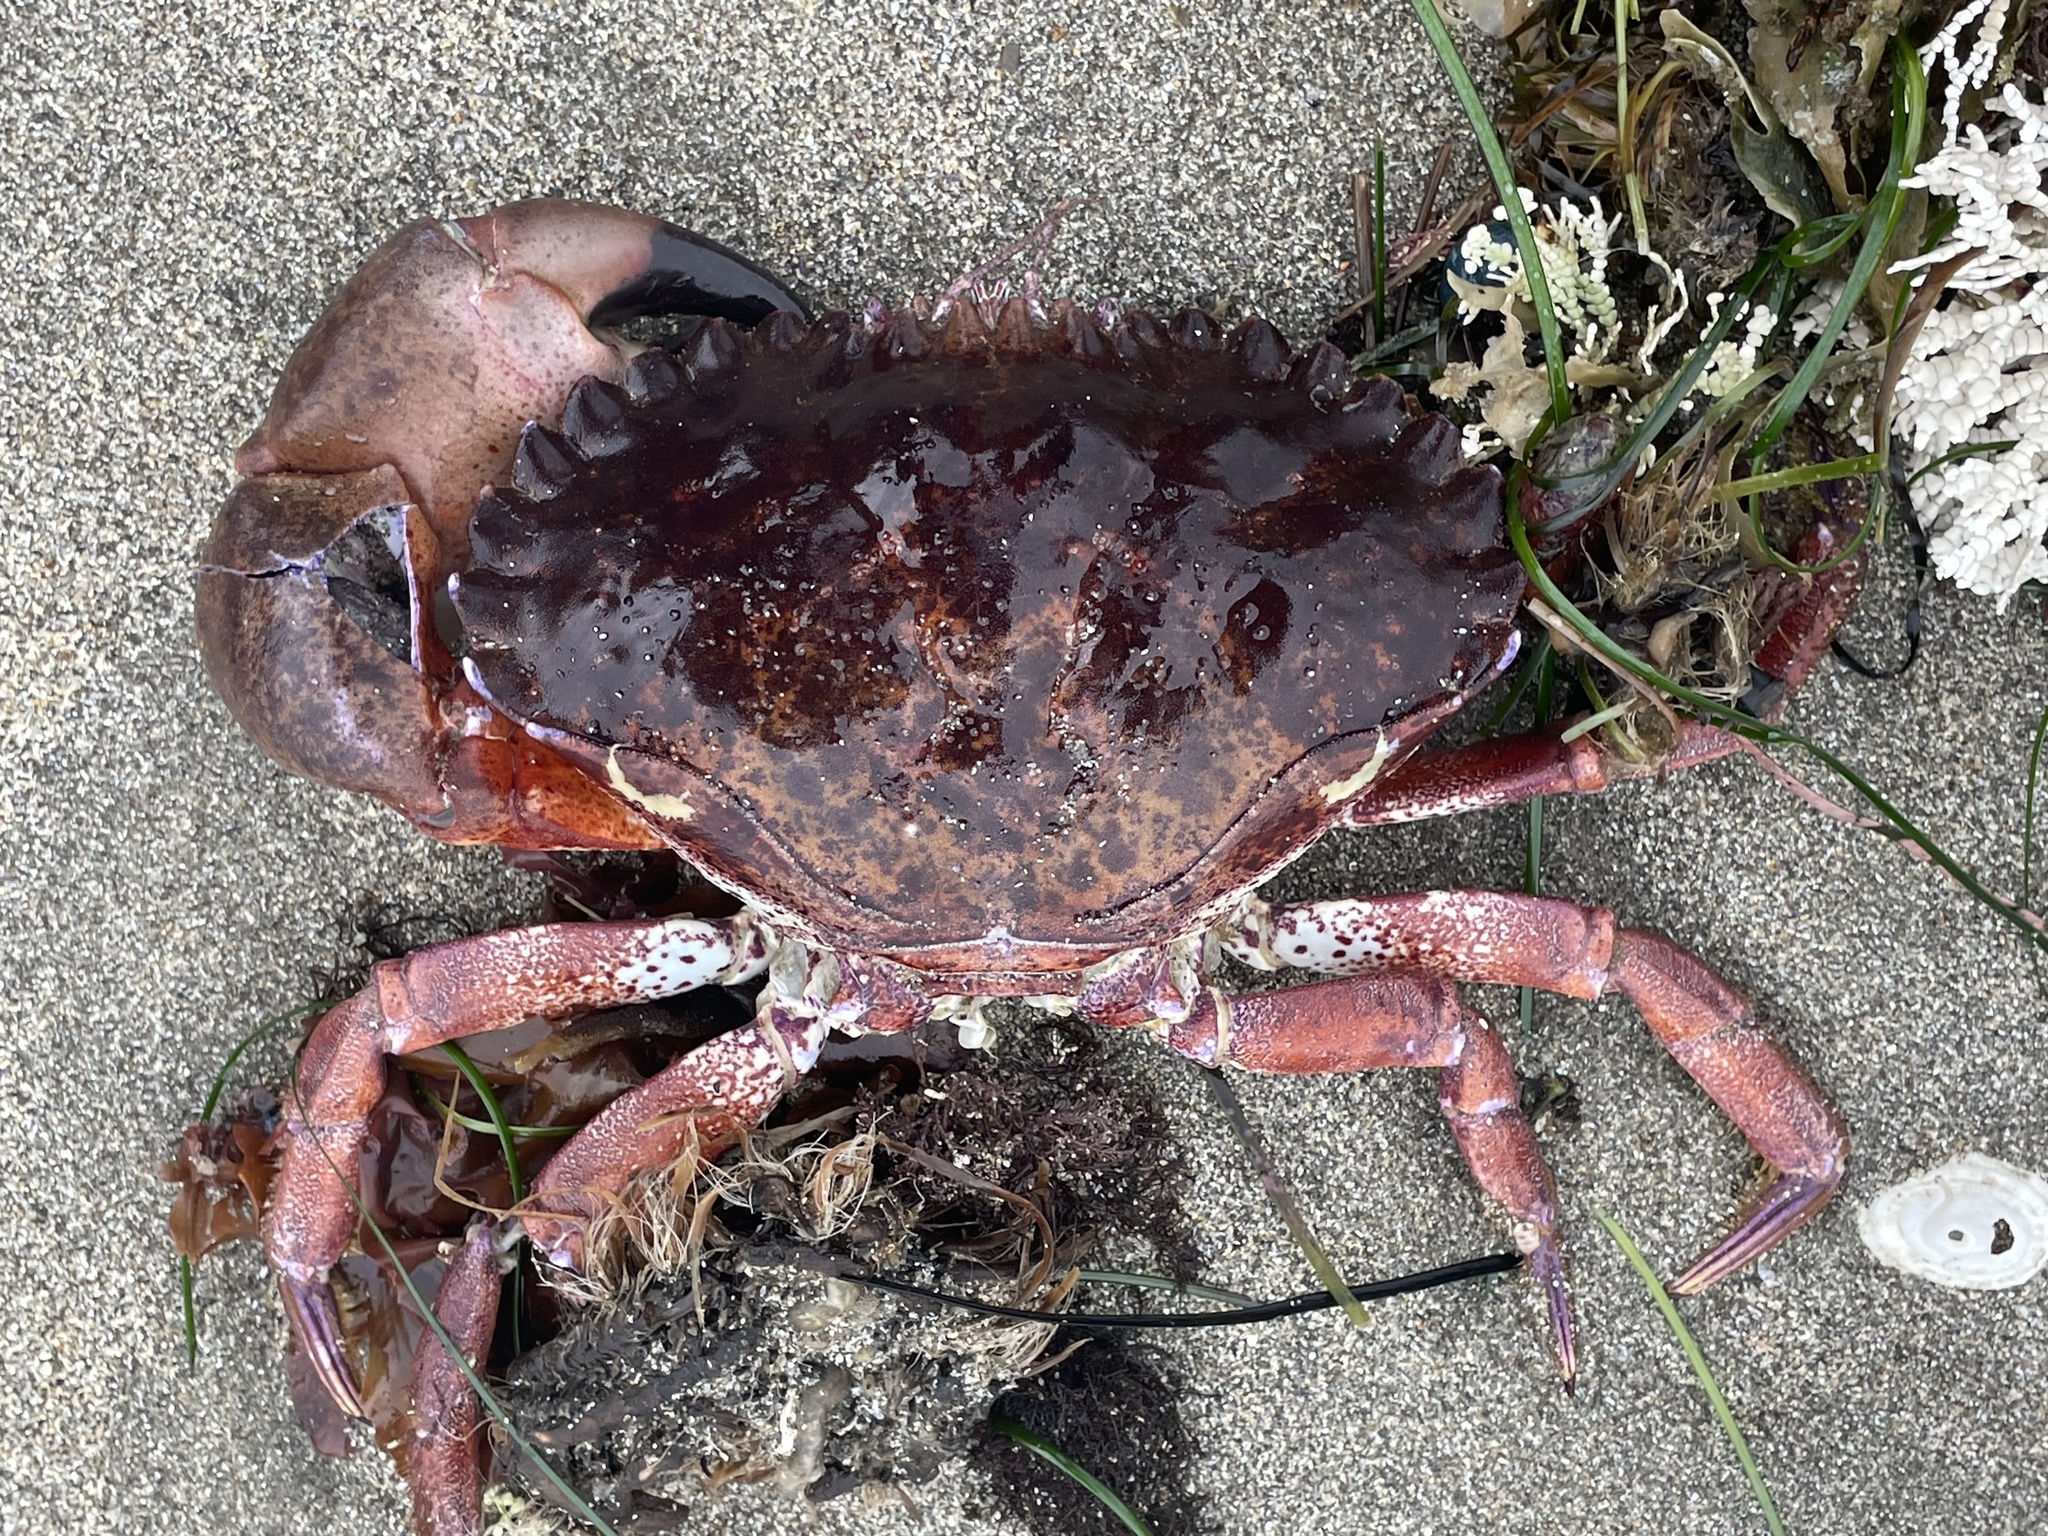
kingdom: Animalia
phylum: Arthropoda
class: Malacostraca
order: Decapoda
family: Cancridae
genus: Romaleon
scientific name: Romaleon antennarium
